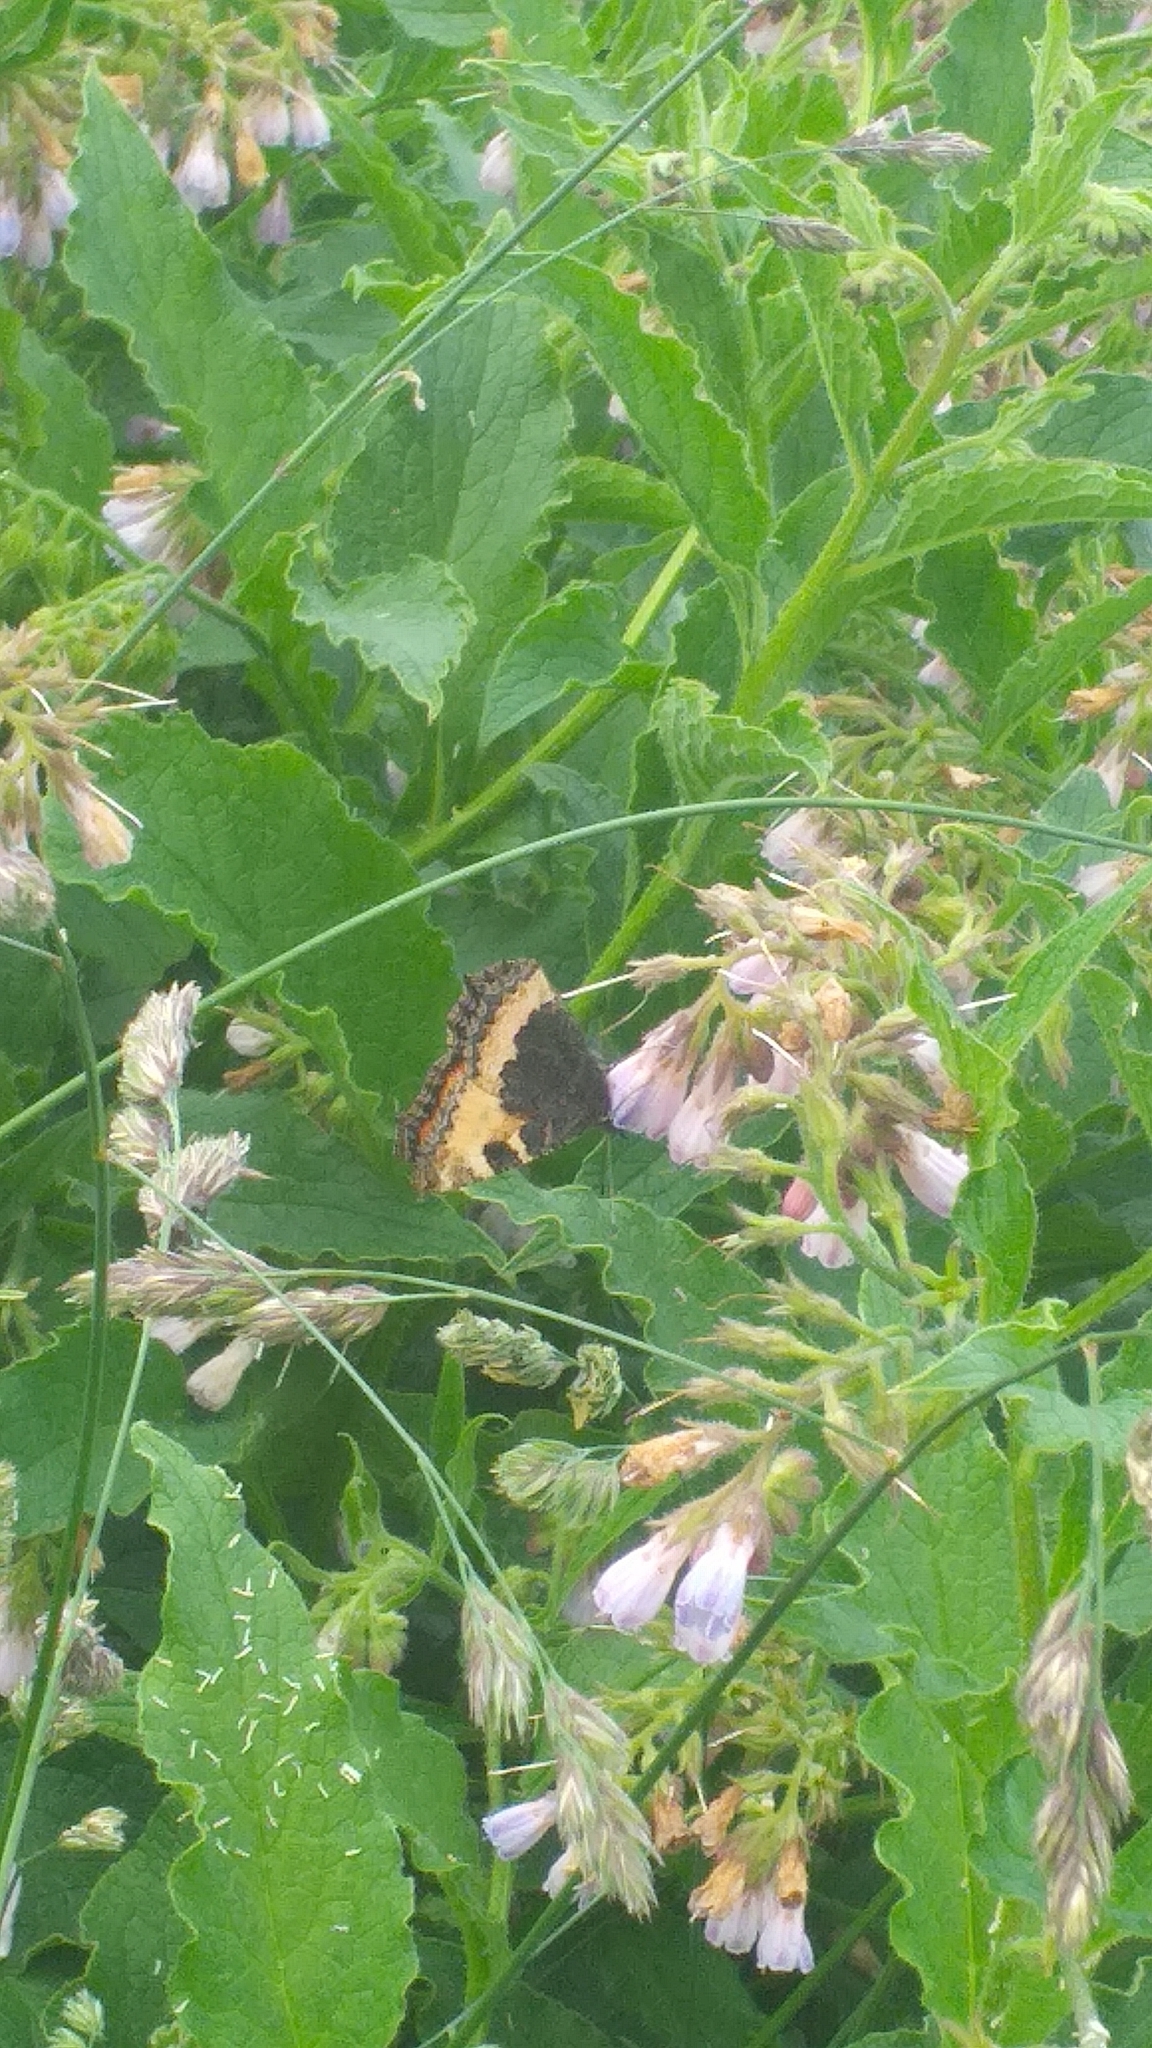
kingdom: Animalia
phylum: Arthropoda
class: Insecta
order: Lepidoptera
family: Nymphalidae
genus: Aglais
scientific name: Aglais urticae
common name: Small tortoiseshell
